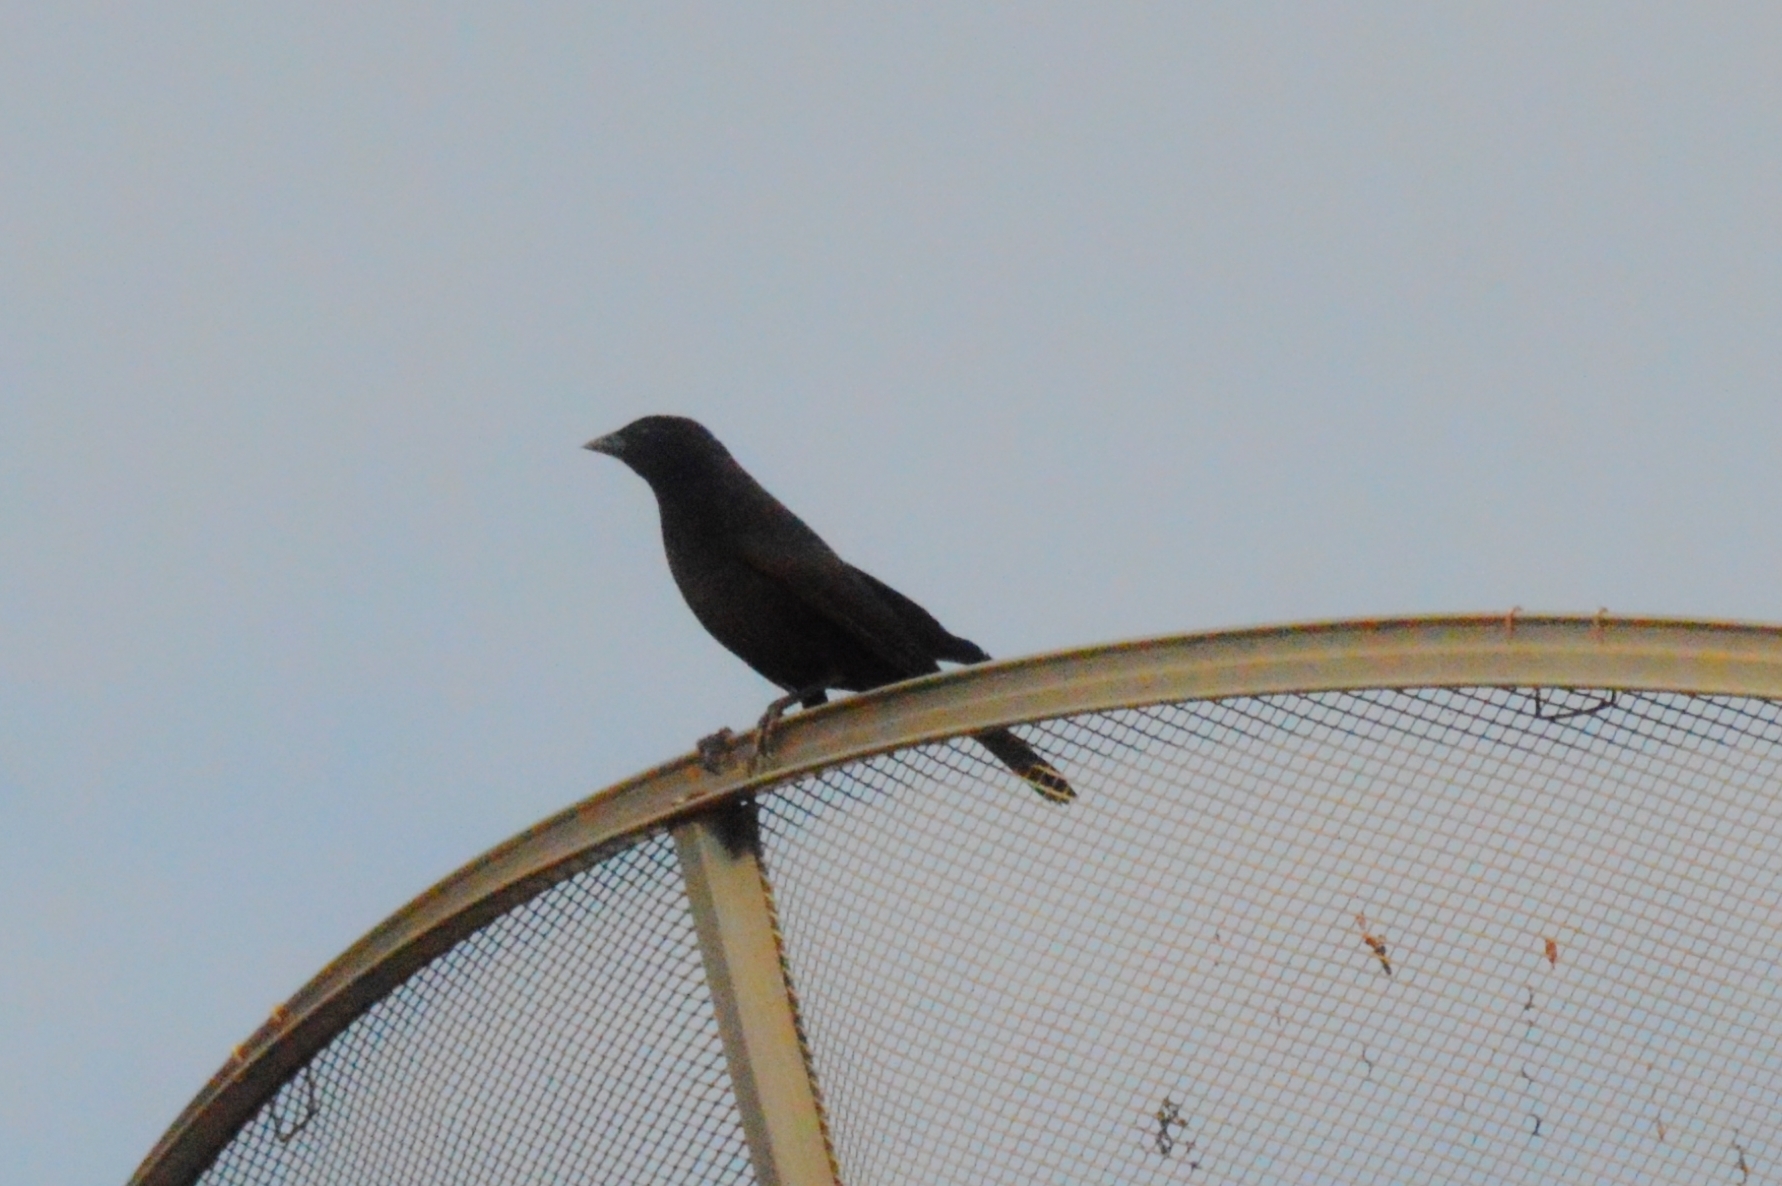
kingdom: Animalia
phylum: Chordata
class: Aves
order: Passeriformes
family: Icteridae
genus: Gnorimopsar
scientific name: Gnorimopsar chopi
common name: Chopi blackbird
